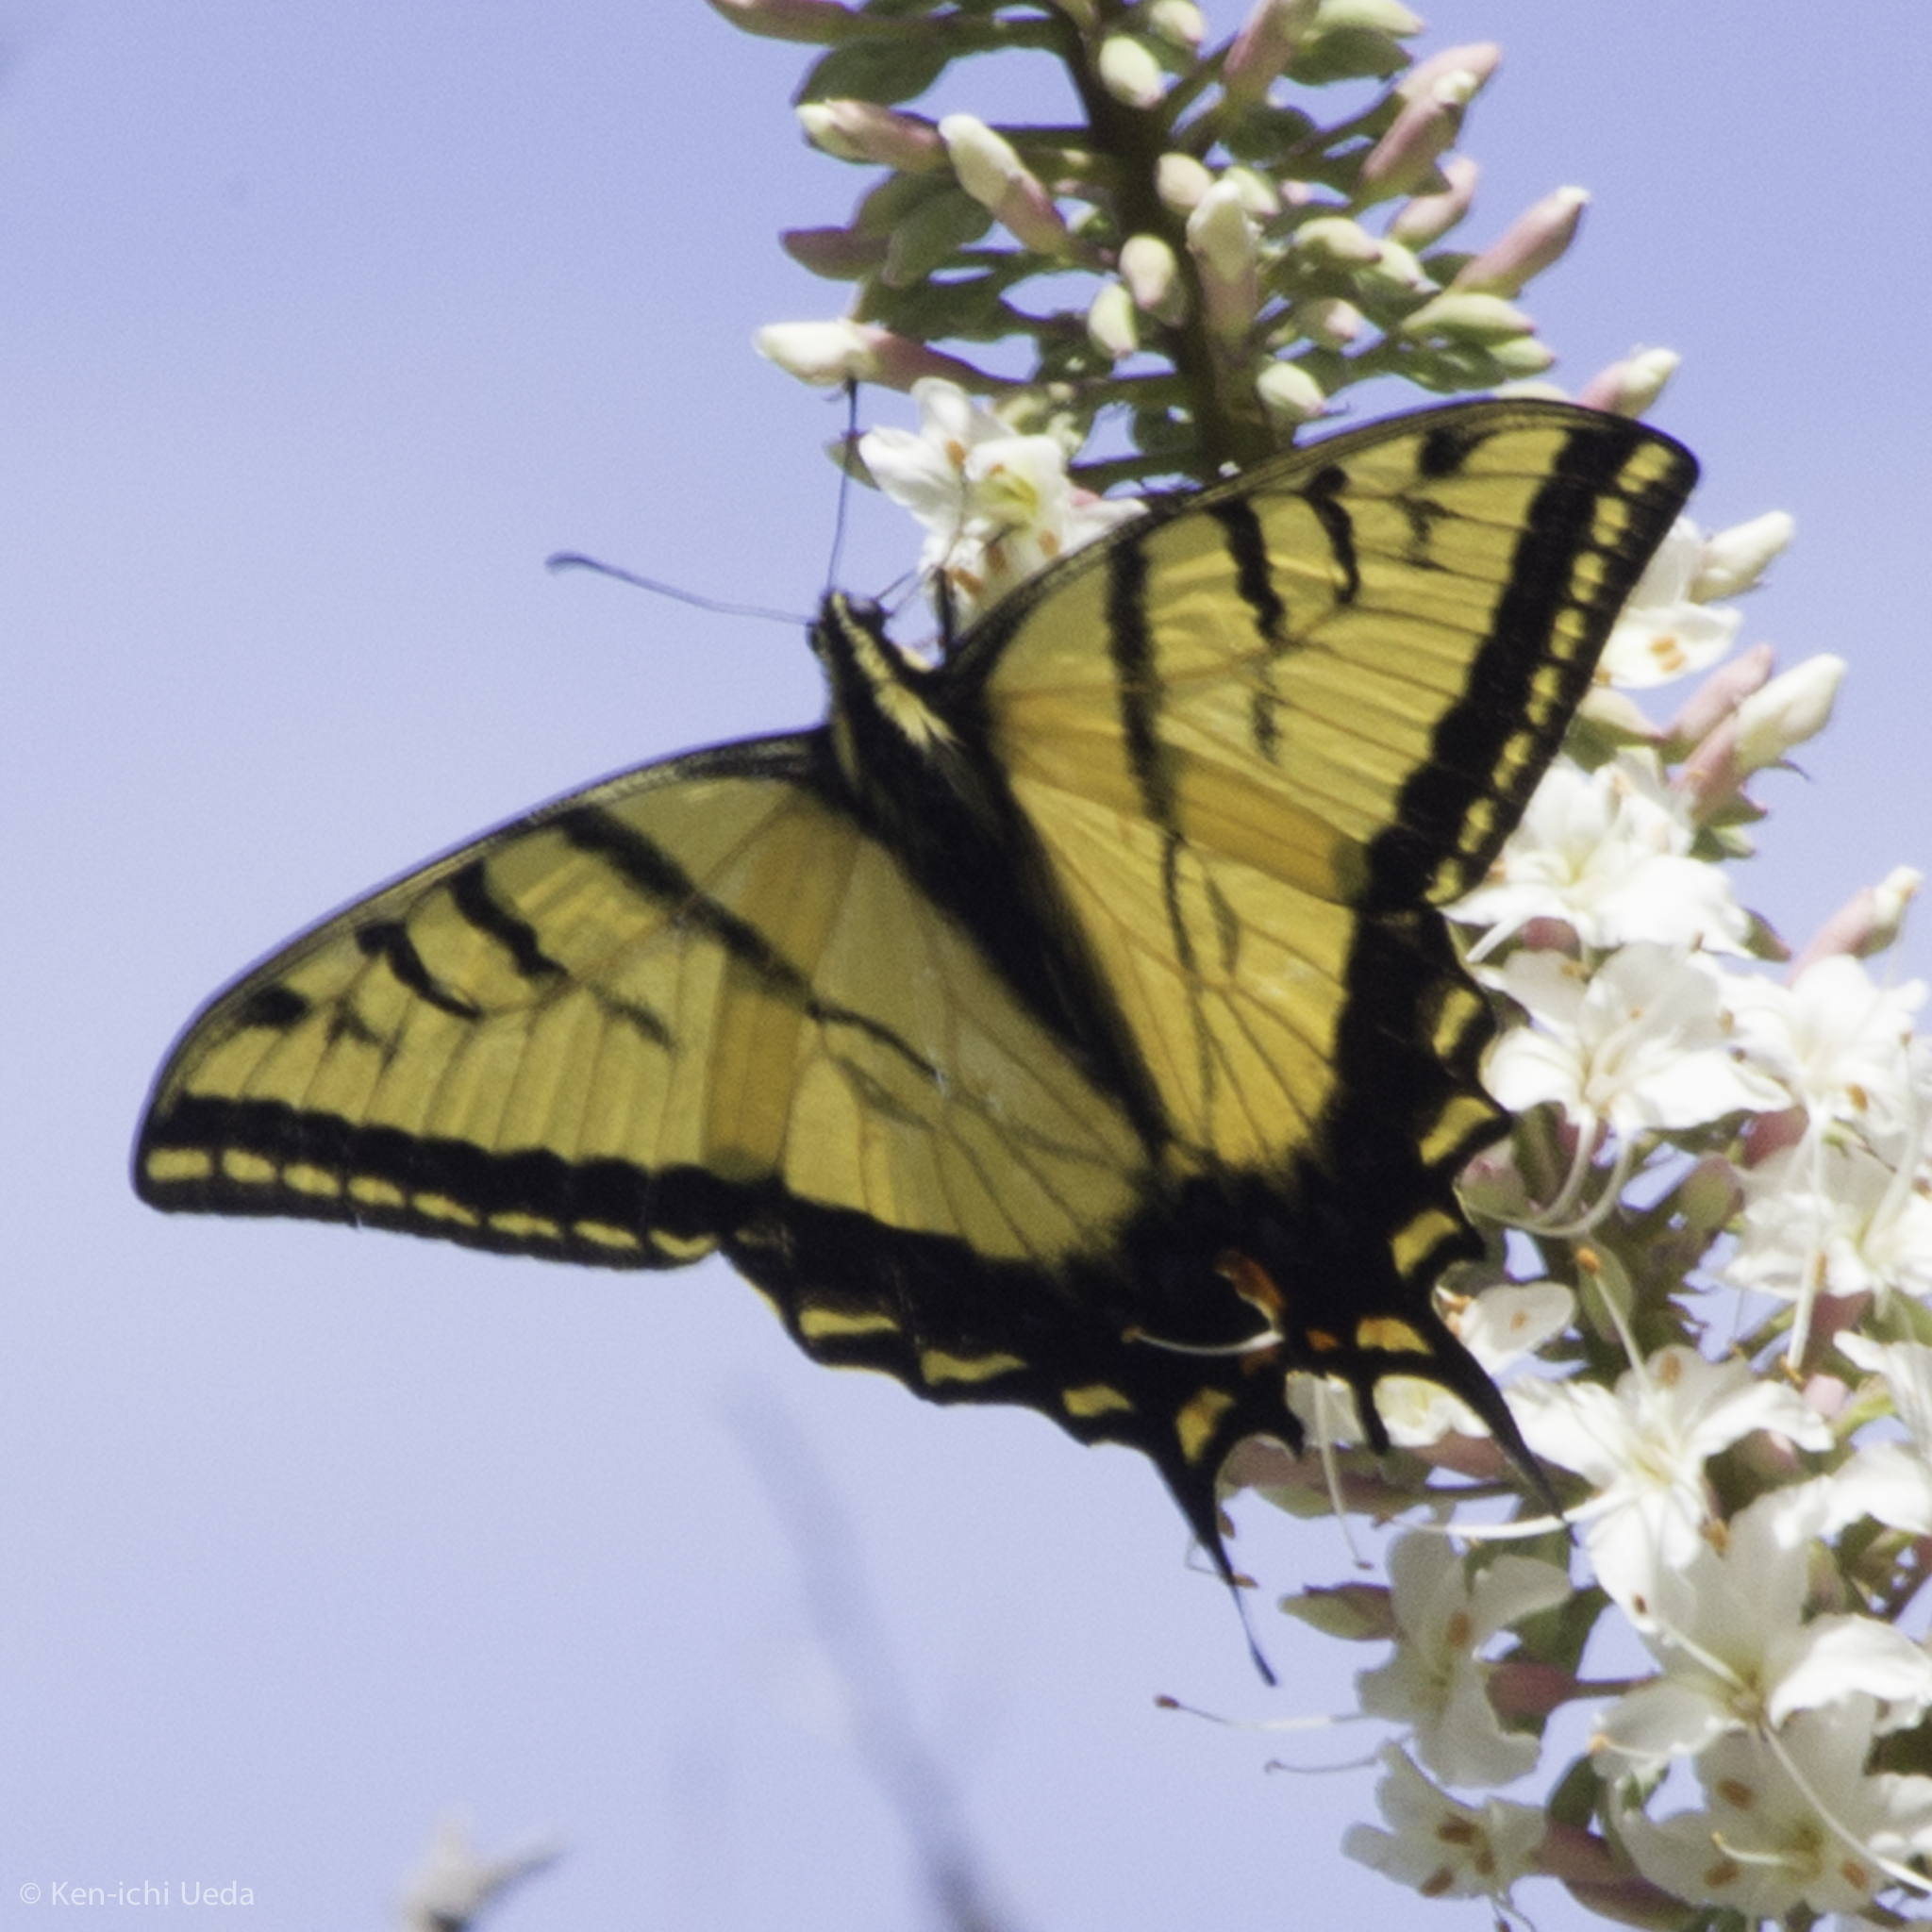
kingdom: Animalia
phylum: Arthropoda
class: Insecta
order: Lepidoptera
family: Papilionidae
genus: Papilio
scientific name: Papilio multicaudata
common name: Two-tailed tiger swallowtail
